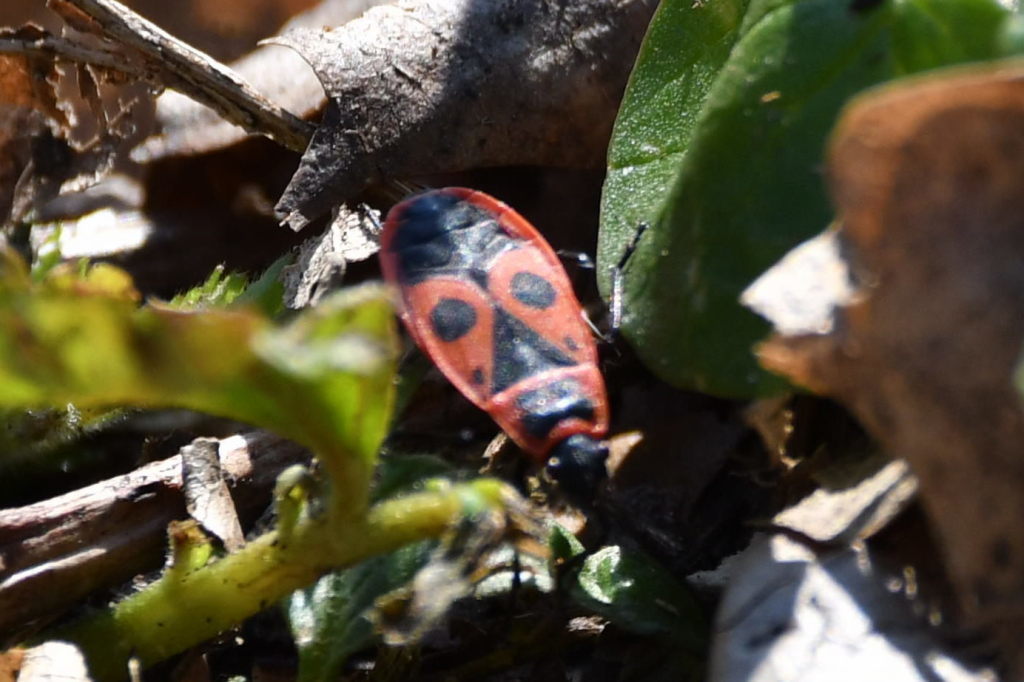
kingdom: Animalia
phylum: Arthropoda
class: Insecta
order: Hemiptera
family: Pyrrhocoridae
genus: Pyrrhocoris
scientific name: Pyrrhocoris apterus
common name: Firebug
